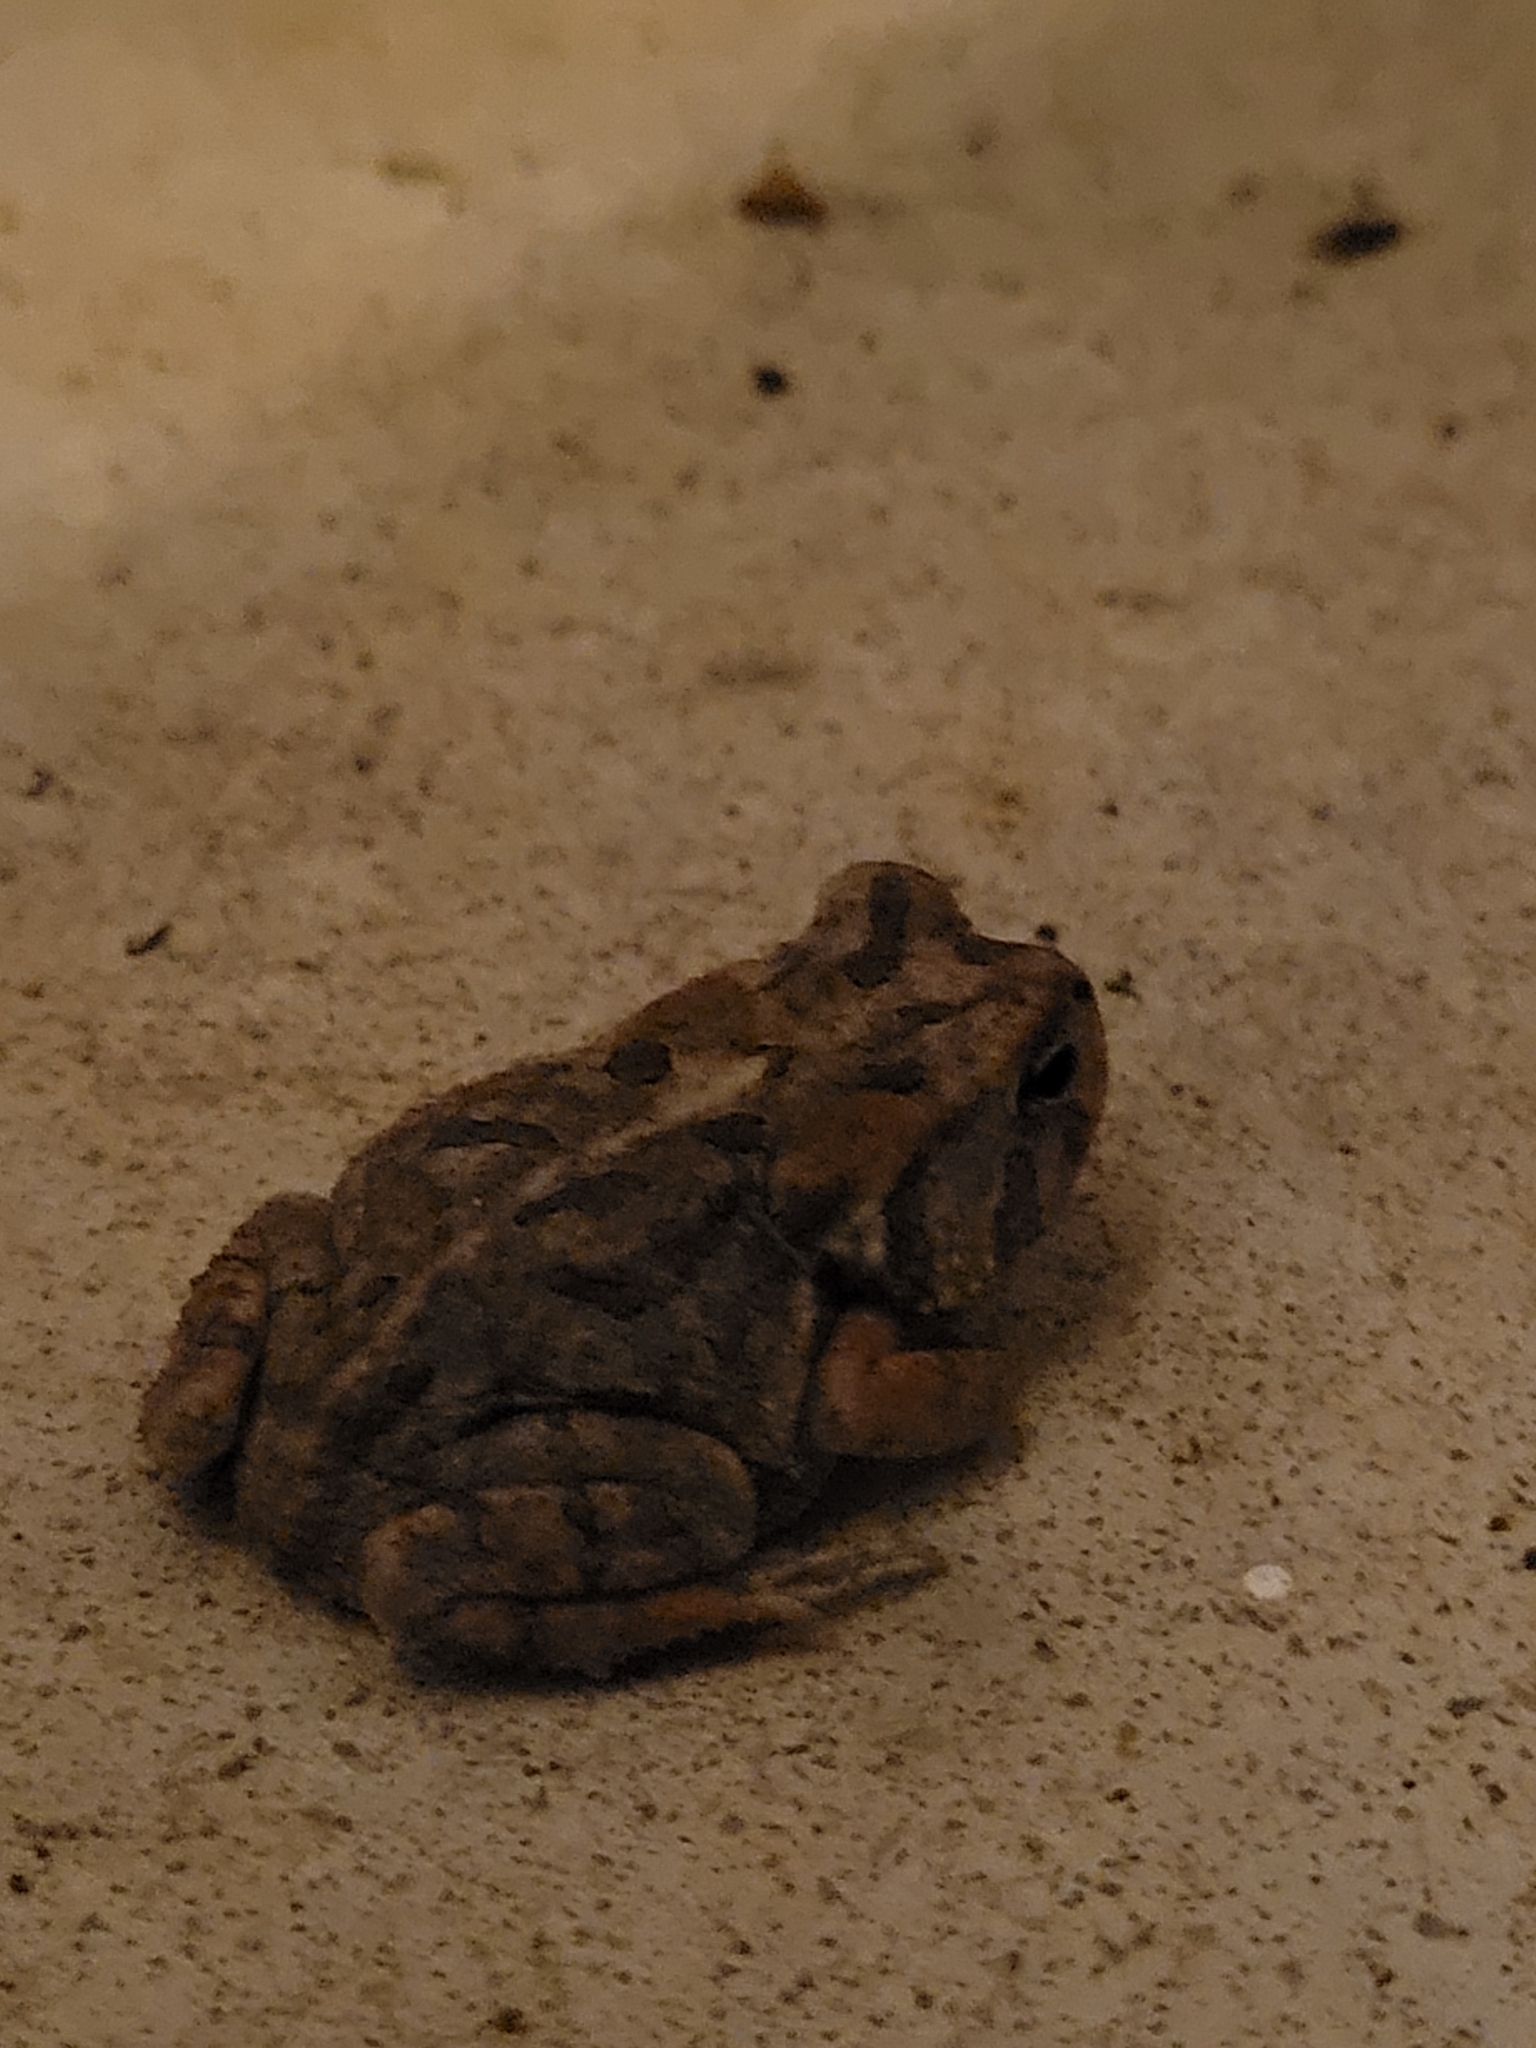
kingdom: Animalia
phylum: Chordata
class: Amphibia
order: Anura
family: Bufonidae
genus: Anaxyrus
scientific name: Anaxyrus terrestris
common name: Southern toad
